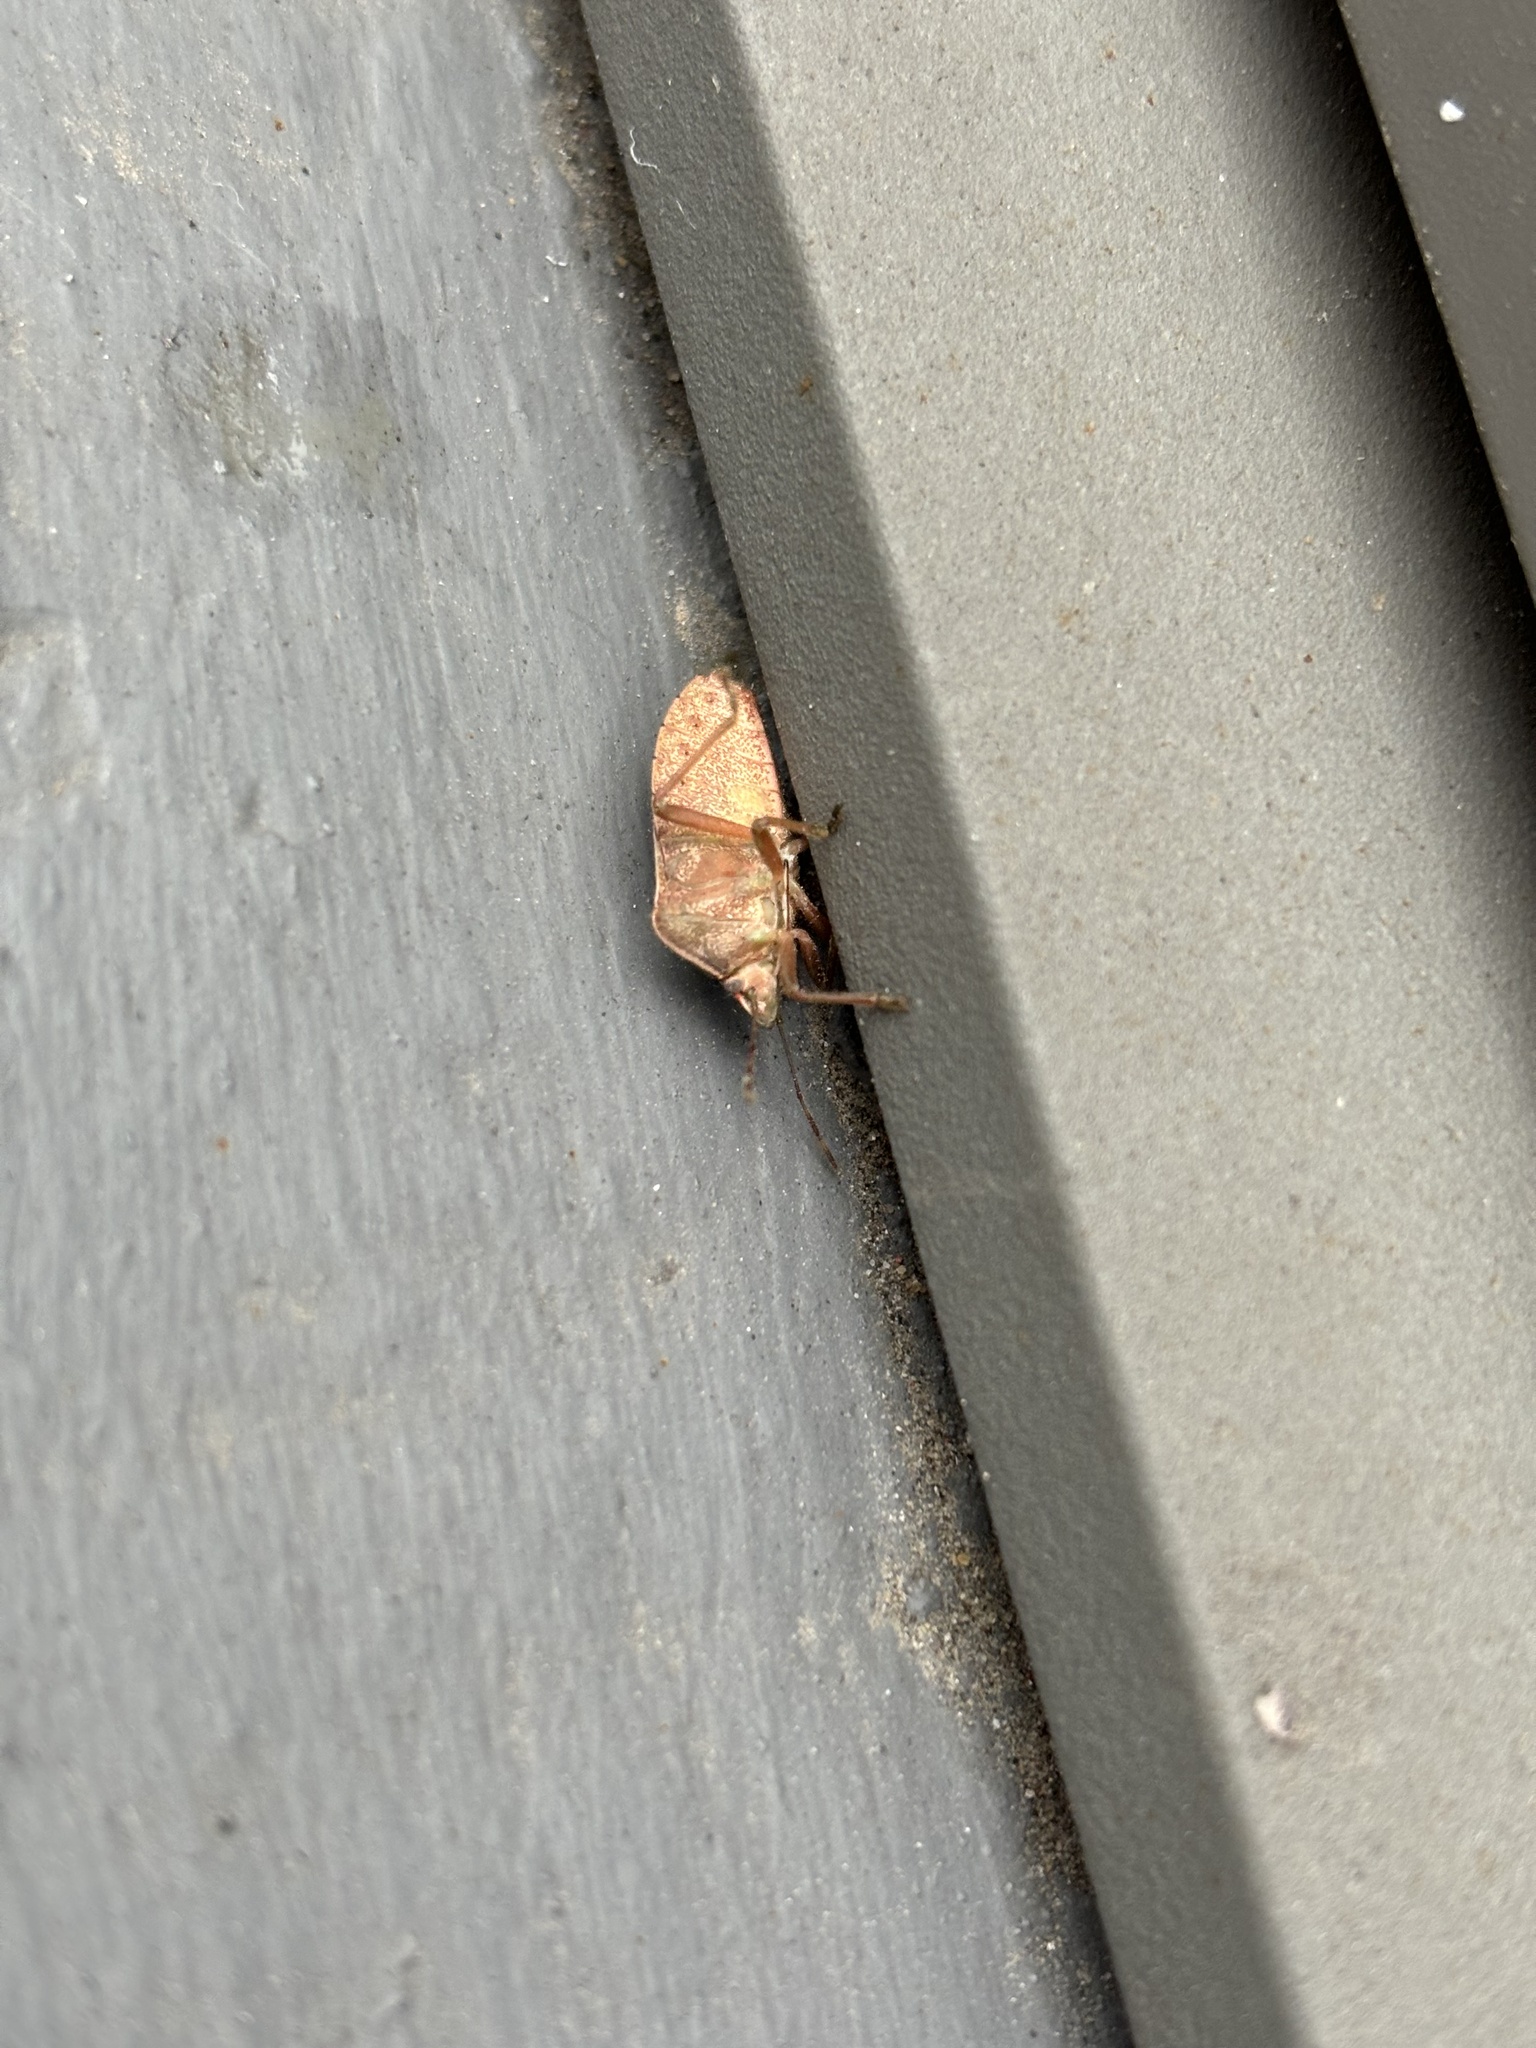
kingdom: Animalia
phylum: Arthropoda
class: Insecta
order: Hemiptera
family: Pentatomidae
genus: Nezara
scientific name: Nezara viridula
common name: Southern green stink bug
